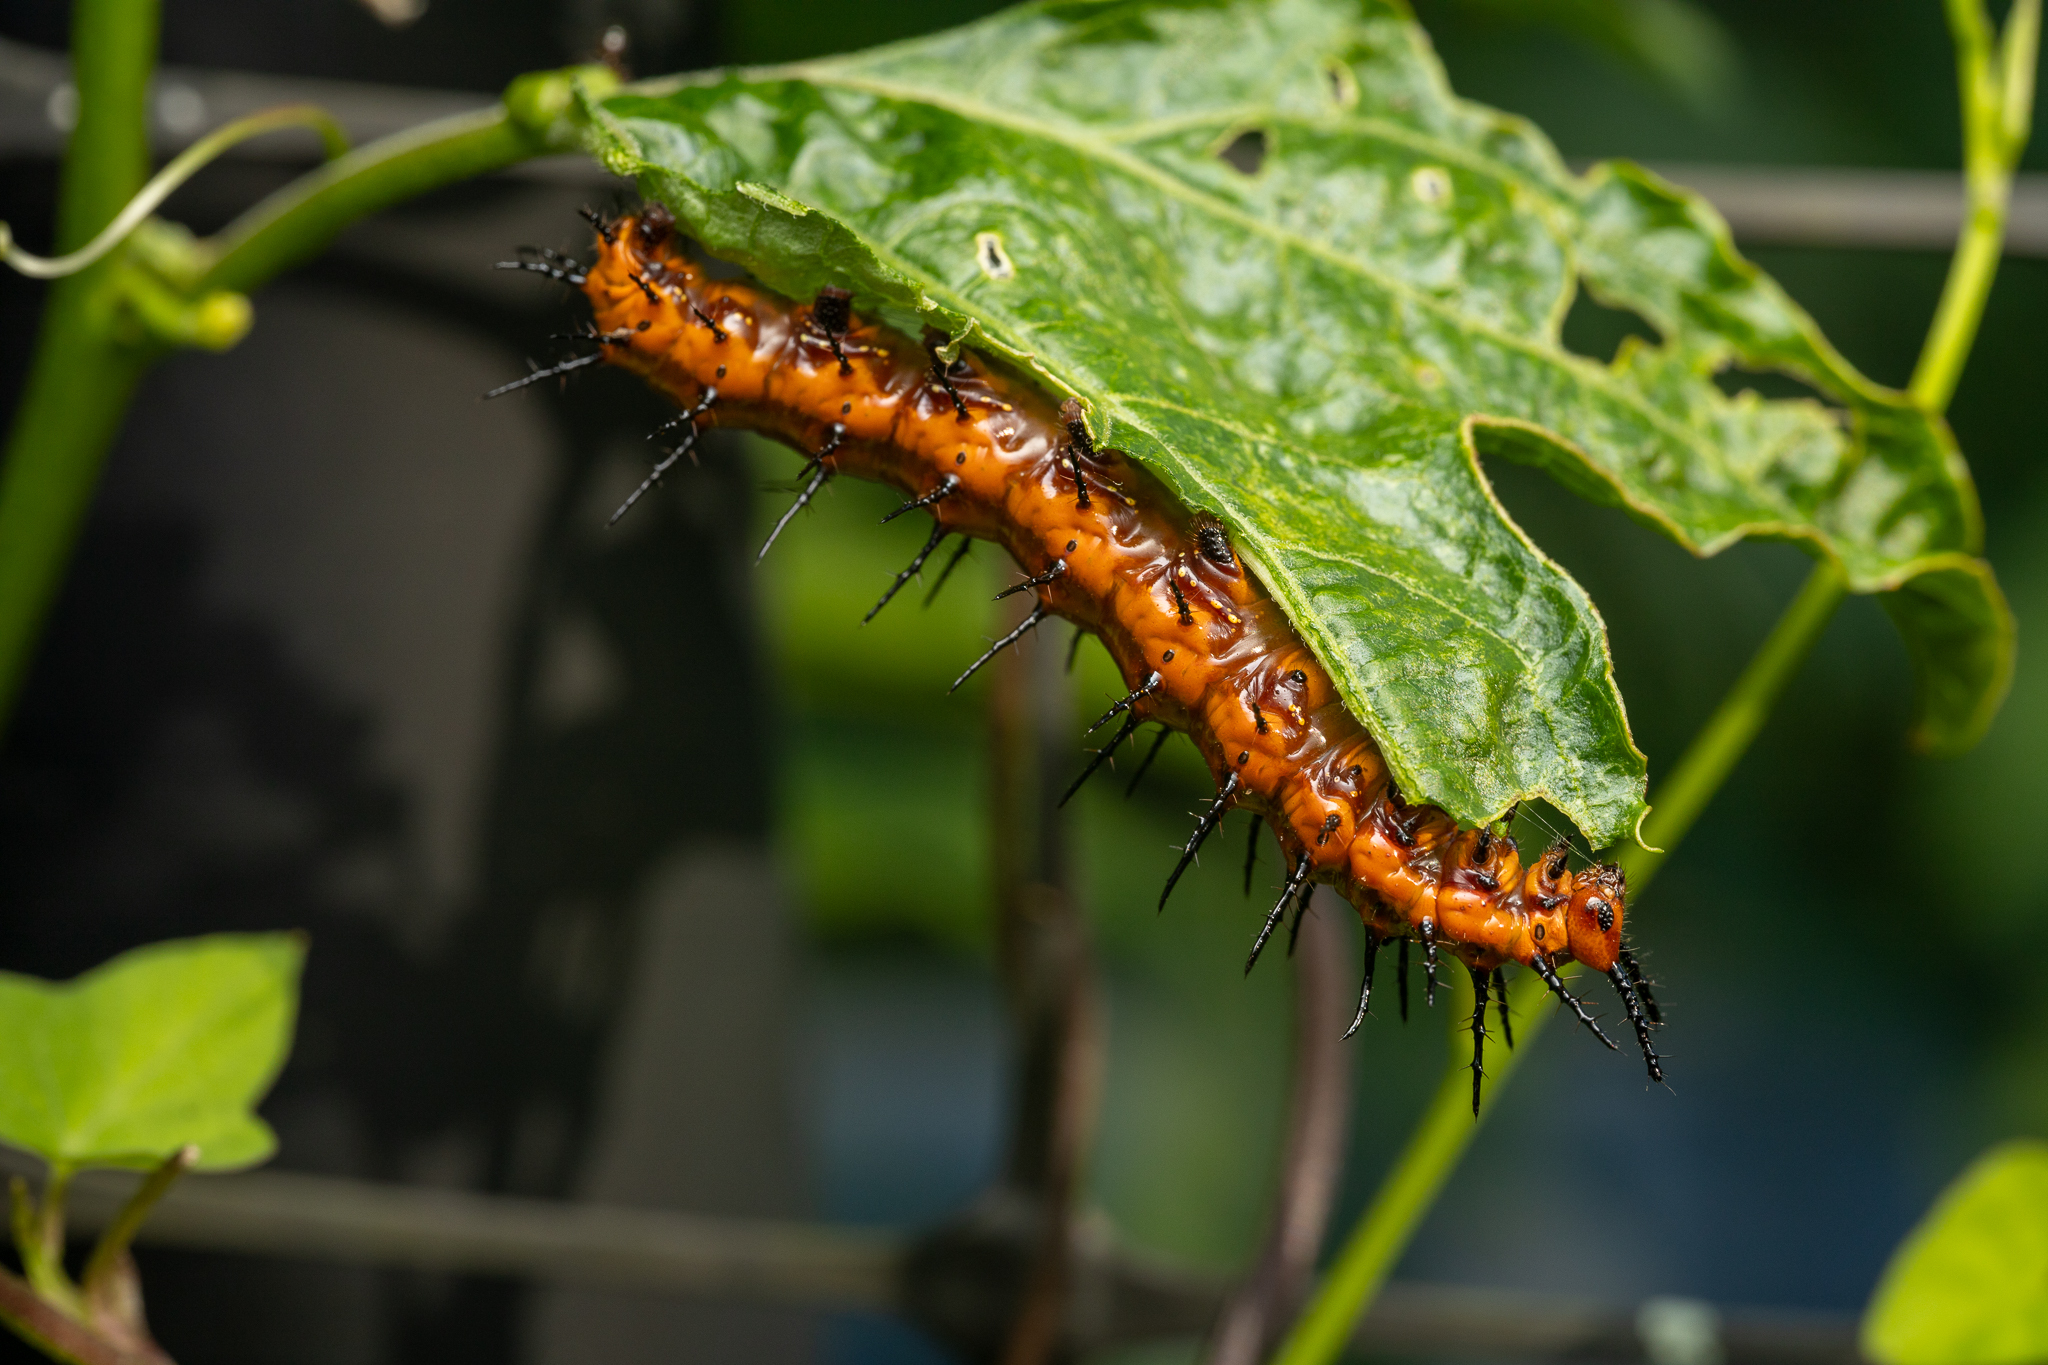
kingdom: Animalia
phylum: Arthropoda
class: Insecta
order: Lepidoptera
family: Nymphalidae
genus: Dione
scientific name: Dione vanillae
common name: Gulf fritillary
